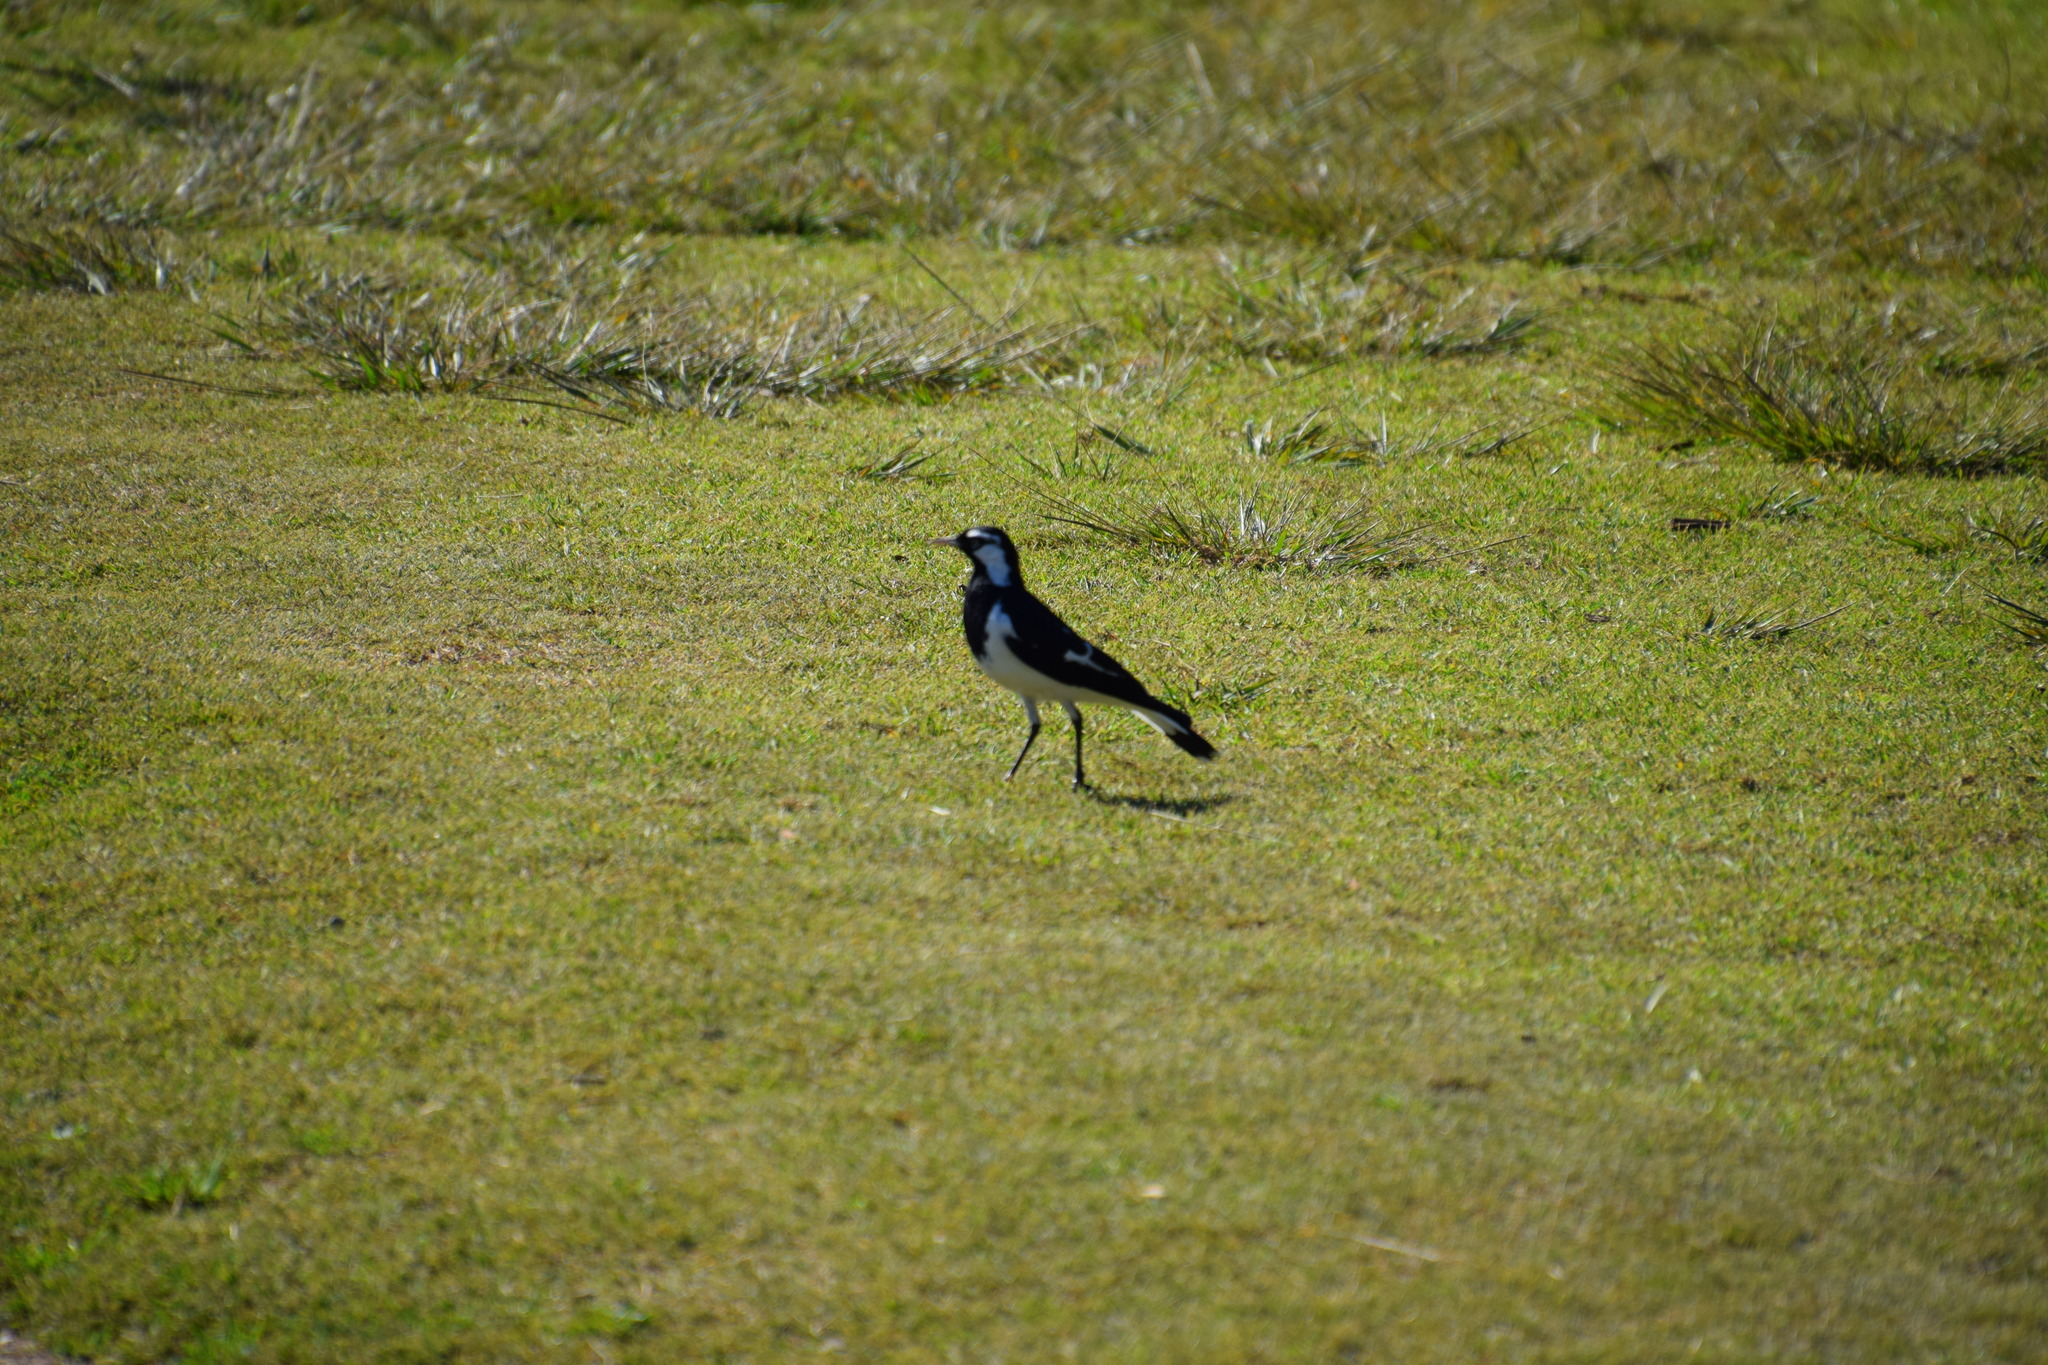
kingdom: Animalia
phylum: Chordata
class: Aves
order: Passeriformes
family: Monarchidae
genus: Grallina
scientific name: Grallina cyanoleuca
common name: Magpie-lark
